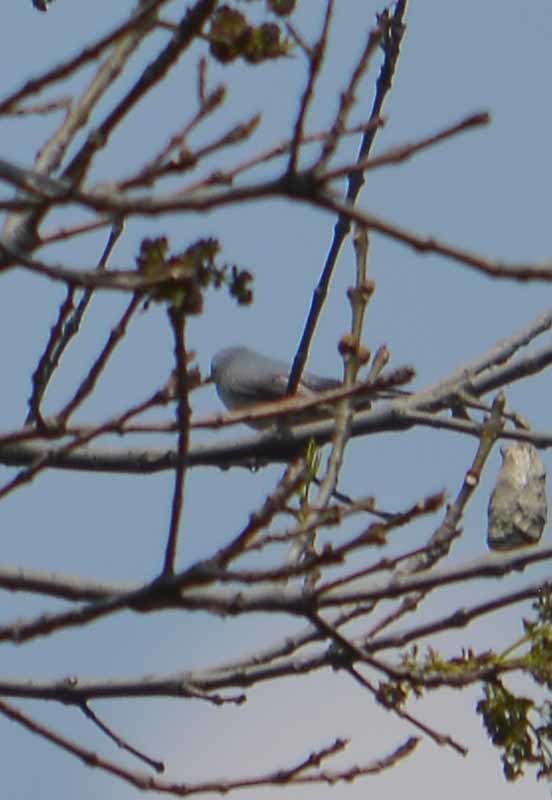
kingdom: Animalia
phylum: Chordata
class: Aves
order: Passeriformes
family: Polioptilidae
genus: Polioptila
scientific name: Polioptila caerulea
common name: Blue-gray gnatcatcher
